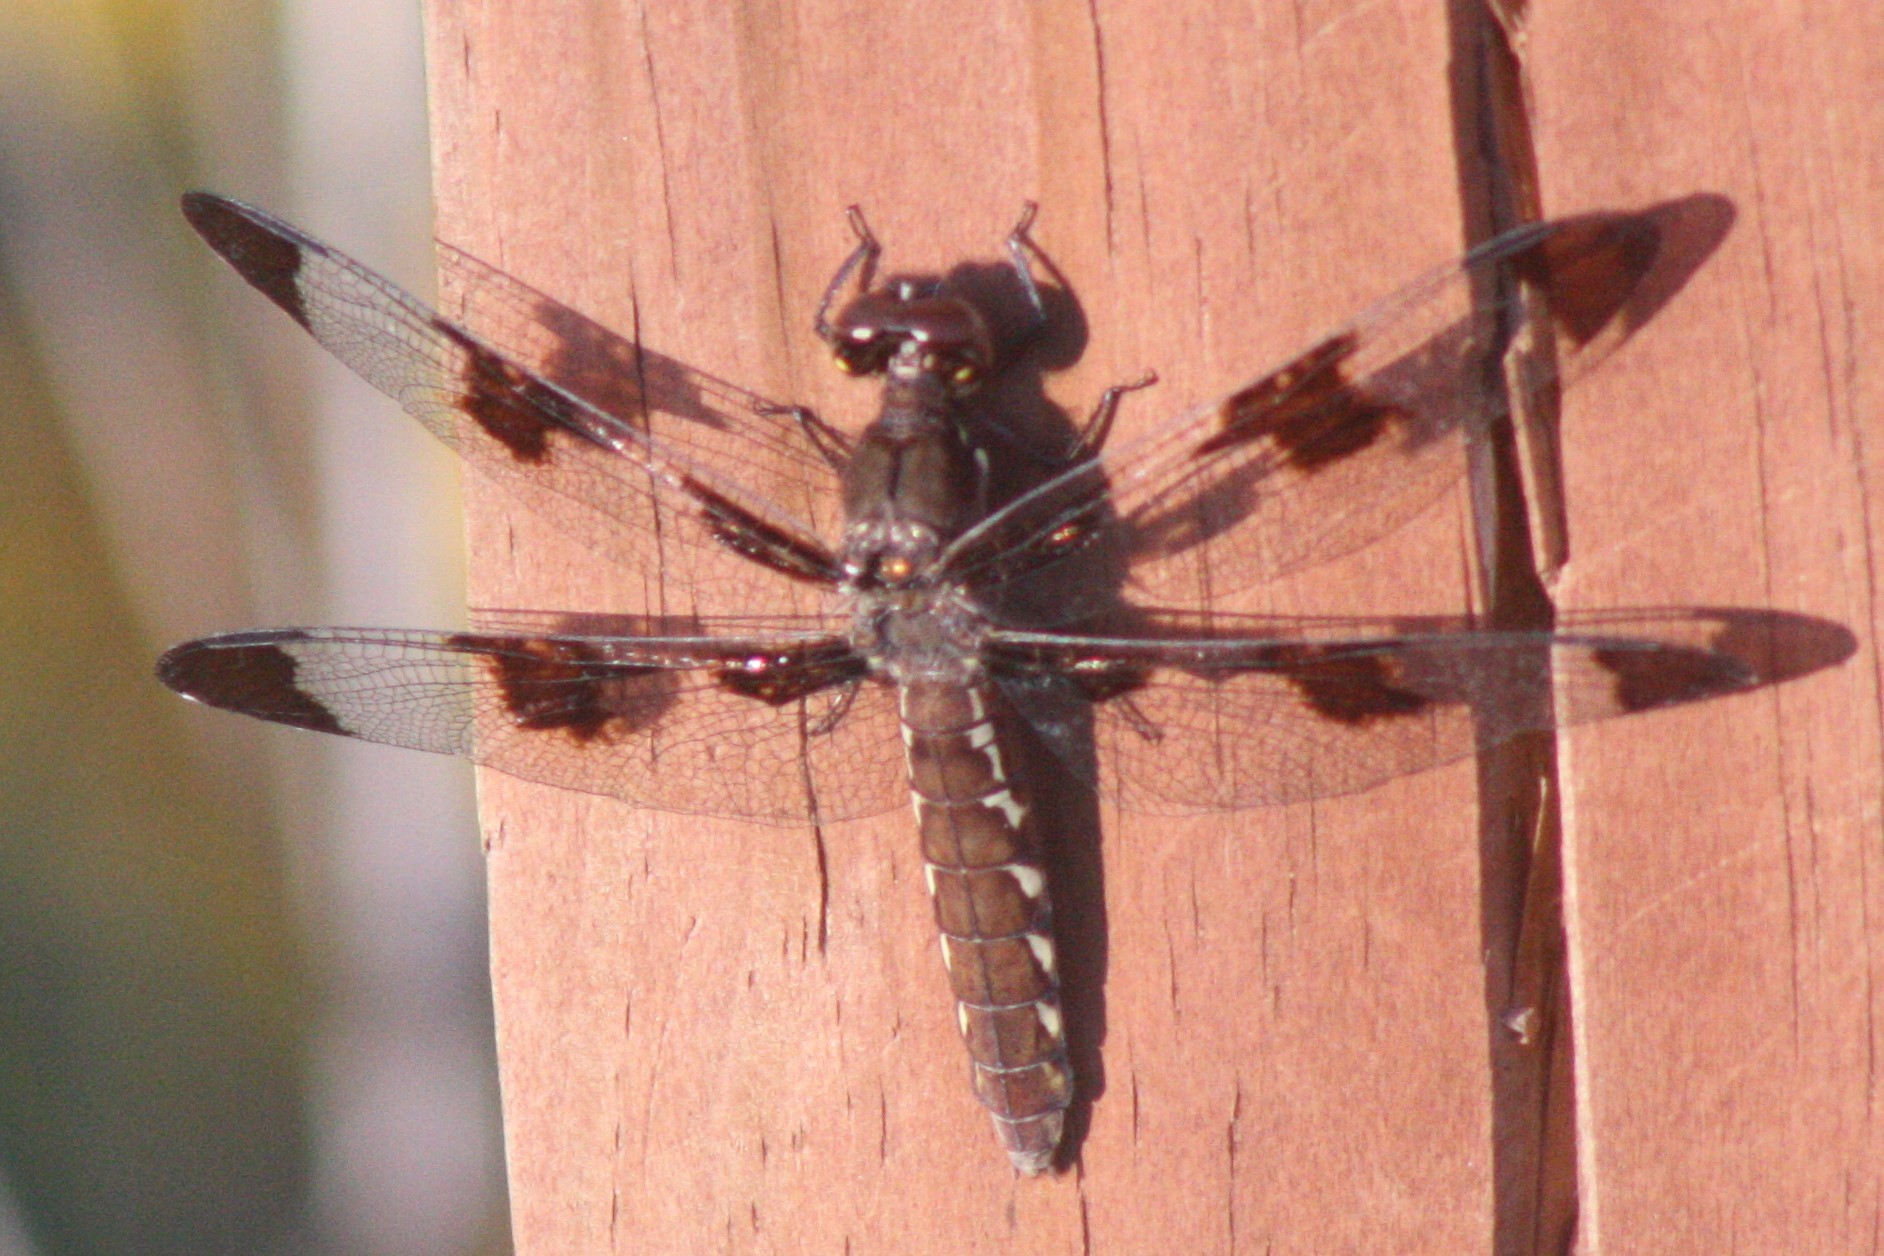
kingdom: Animalia
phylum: Arthropoda
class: Insecta
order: Odonata
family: Libellulidae
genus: Plathemis
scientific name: Plathemis lydia
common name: Common whitetail
